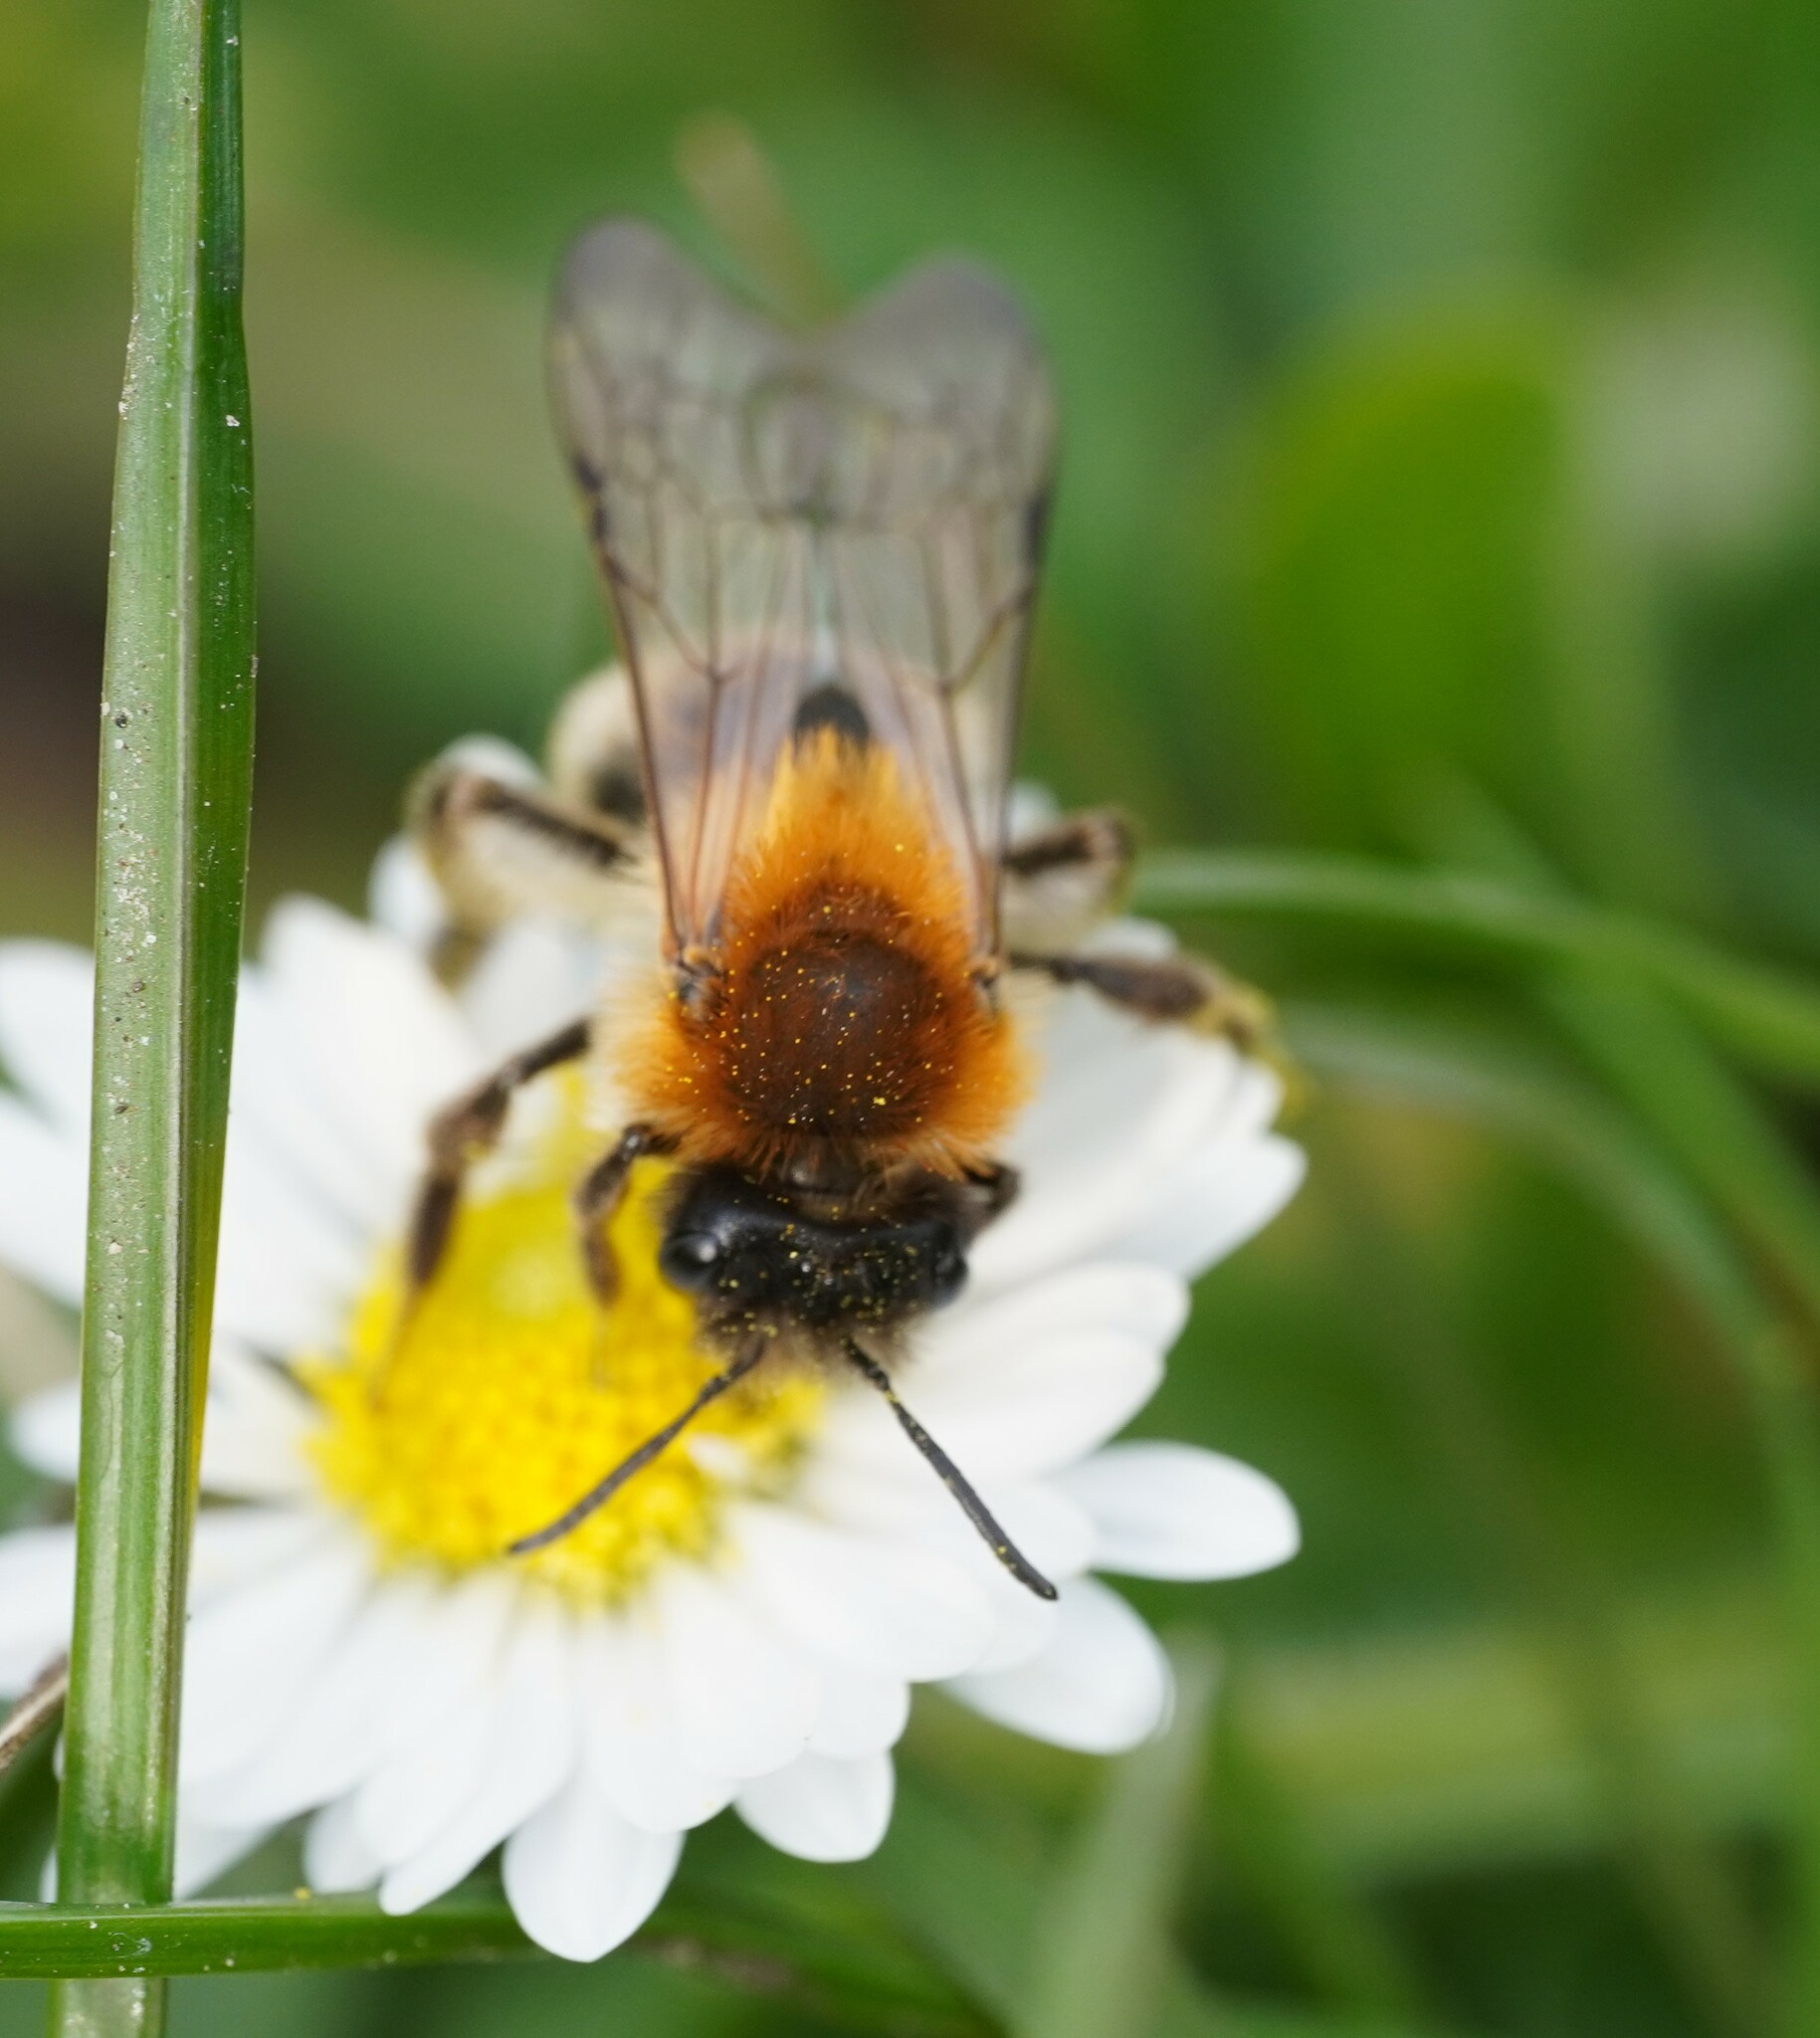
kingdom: Animalia
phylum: Arthropoda
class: Insecta
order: Hymenoptera
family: Andrenidae
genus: Andrena
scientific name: Andrena nitida
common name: Grey-patched mining bee
